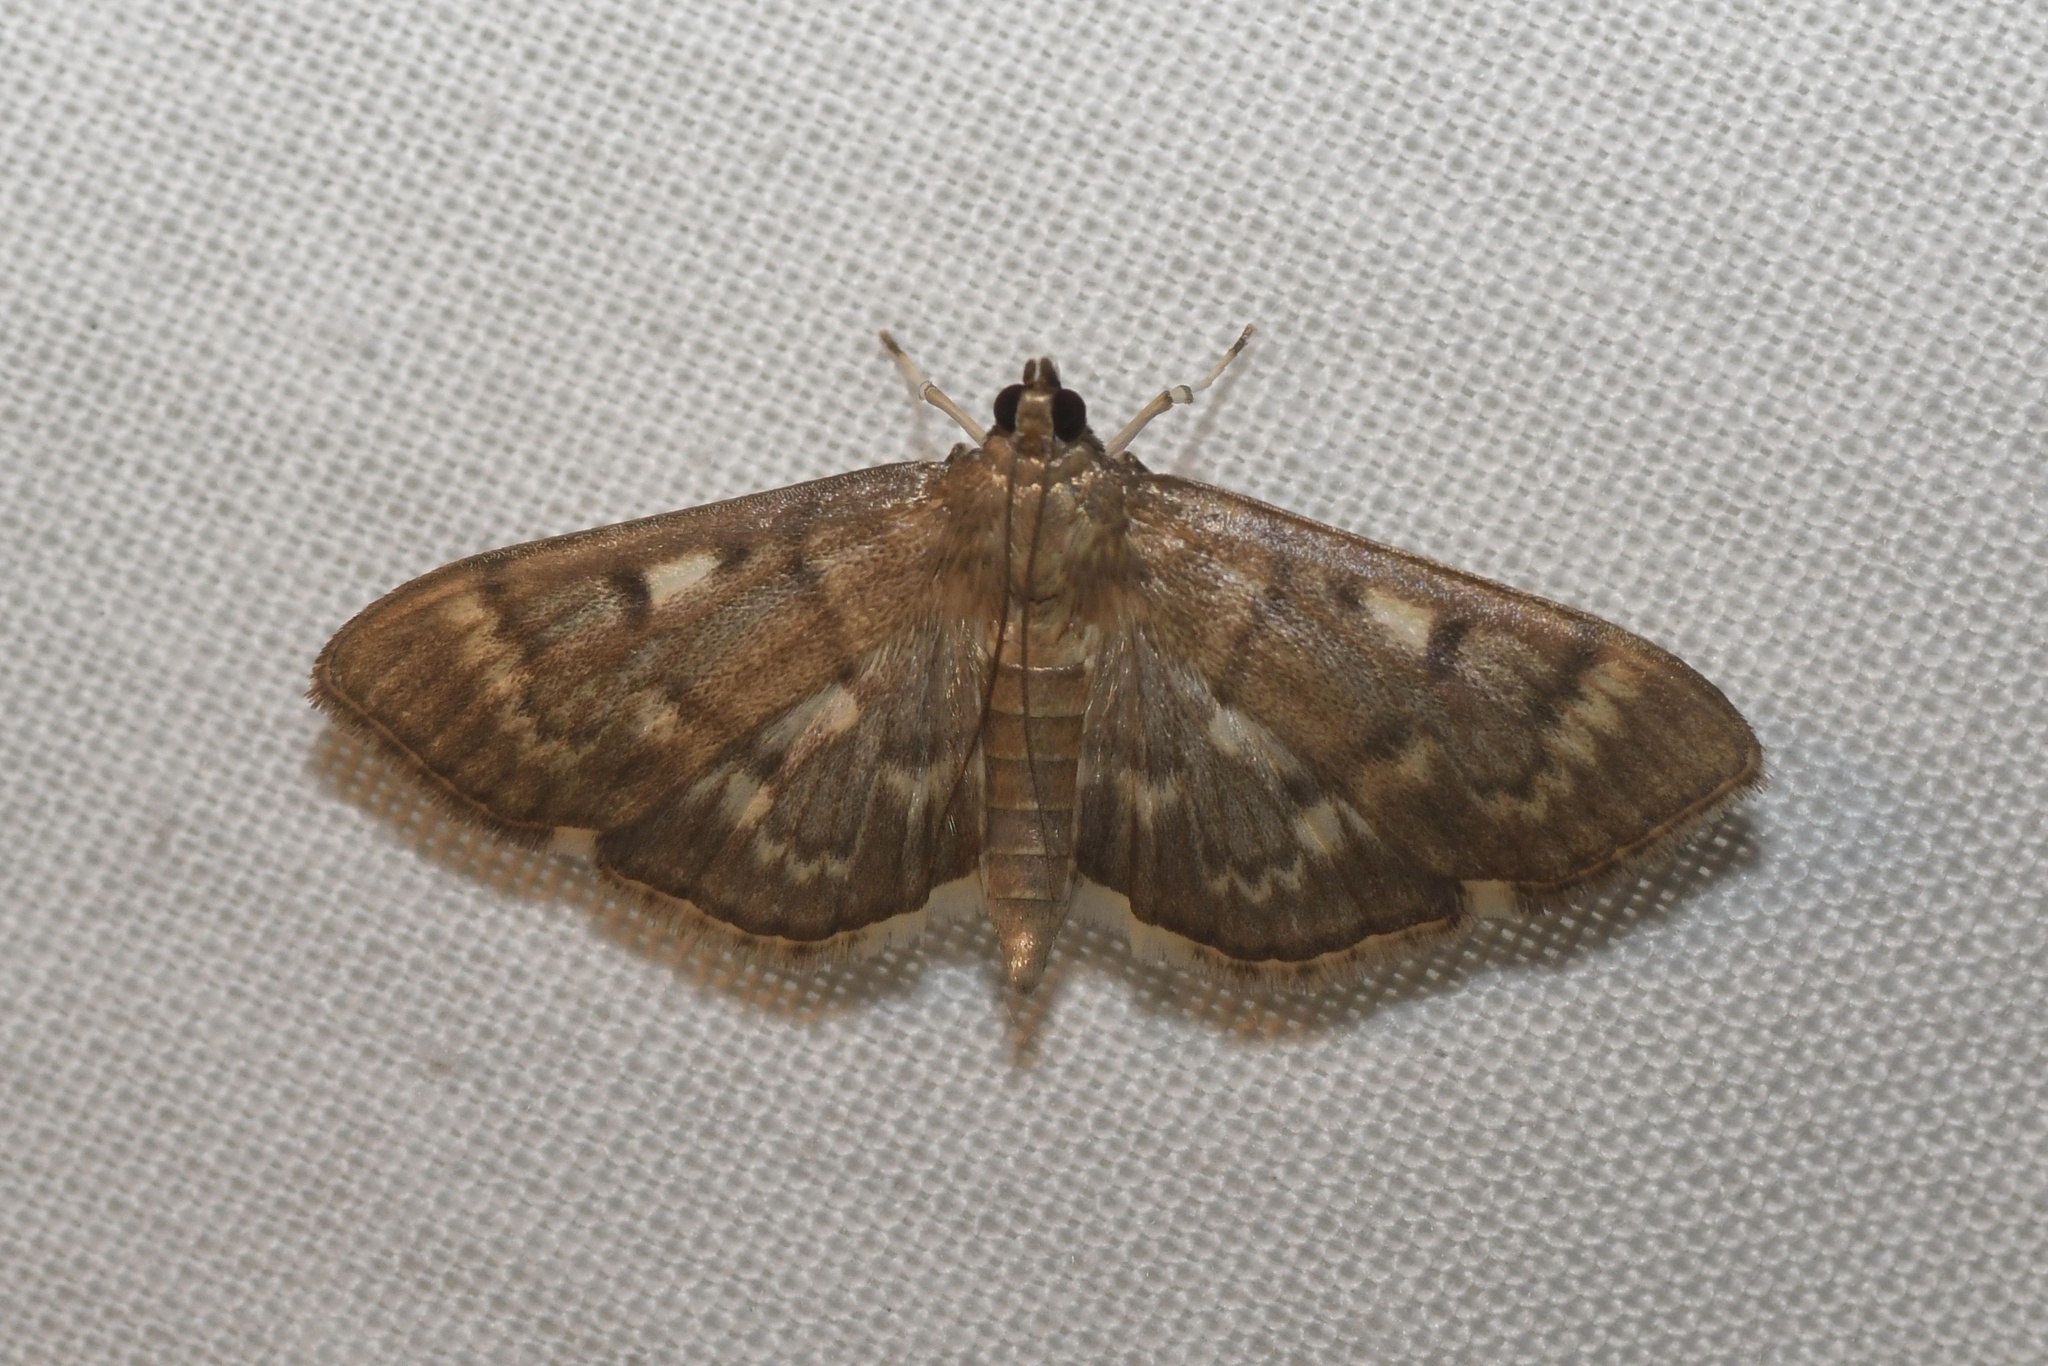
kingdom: Animalia
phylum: Arthropoda
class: Insecta
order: Lepidoptera
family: Crambidae
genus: Herpetogramma
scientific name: Herpetogramma aeglealis
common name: Serpentine webworm moth
